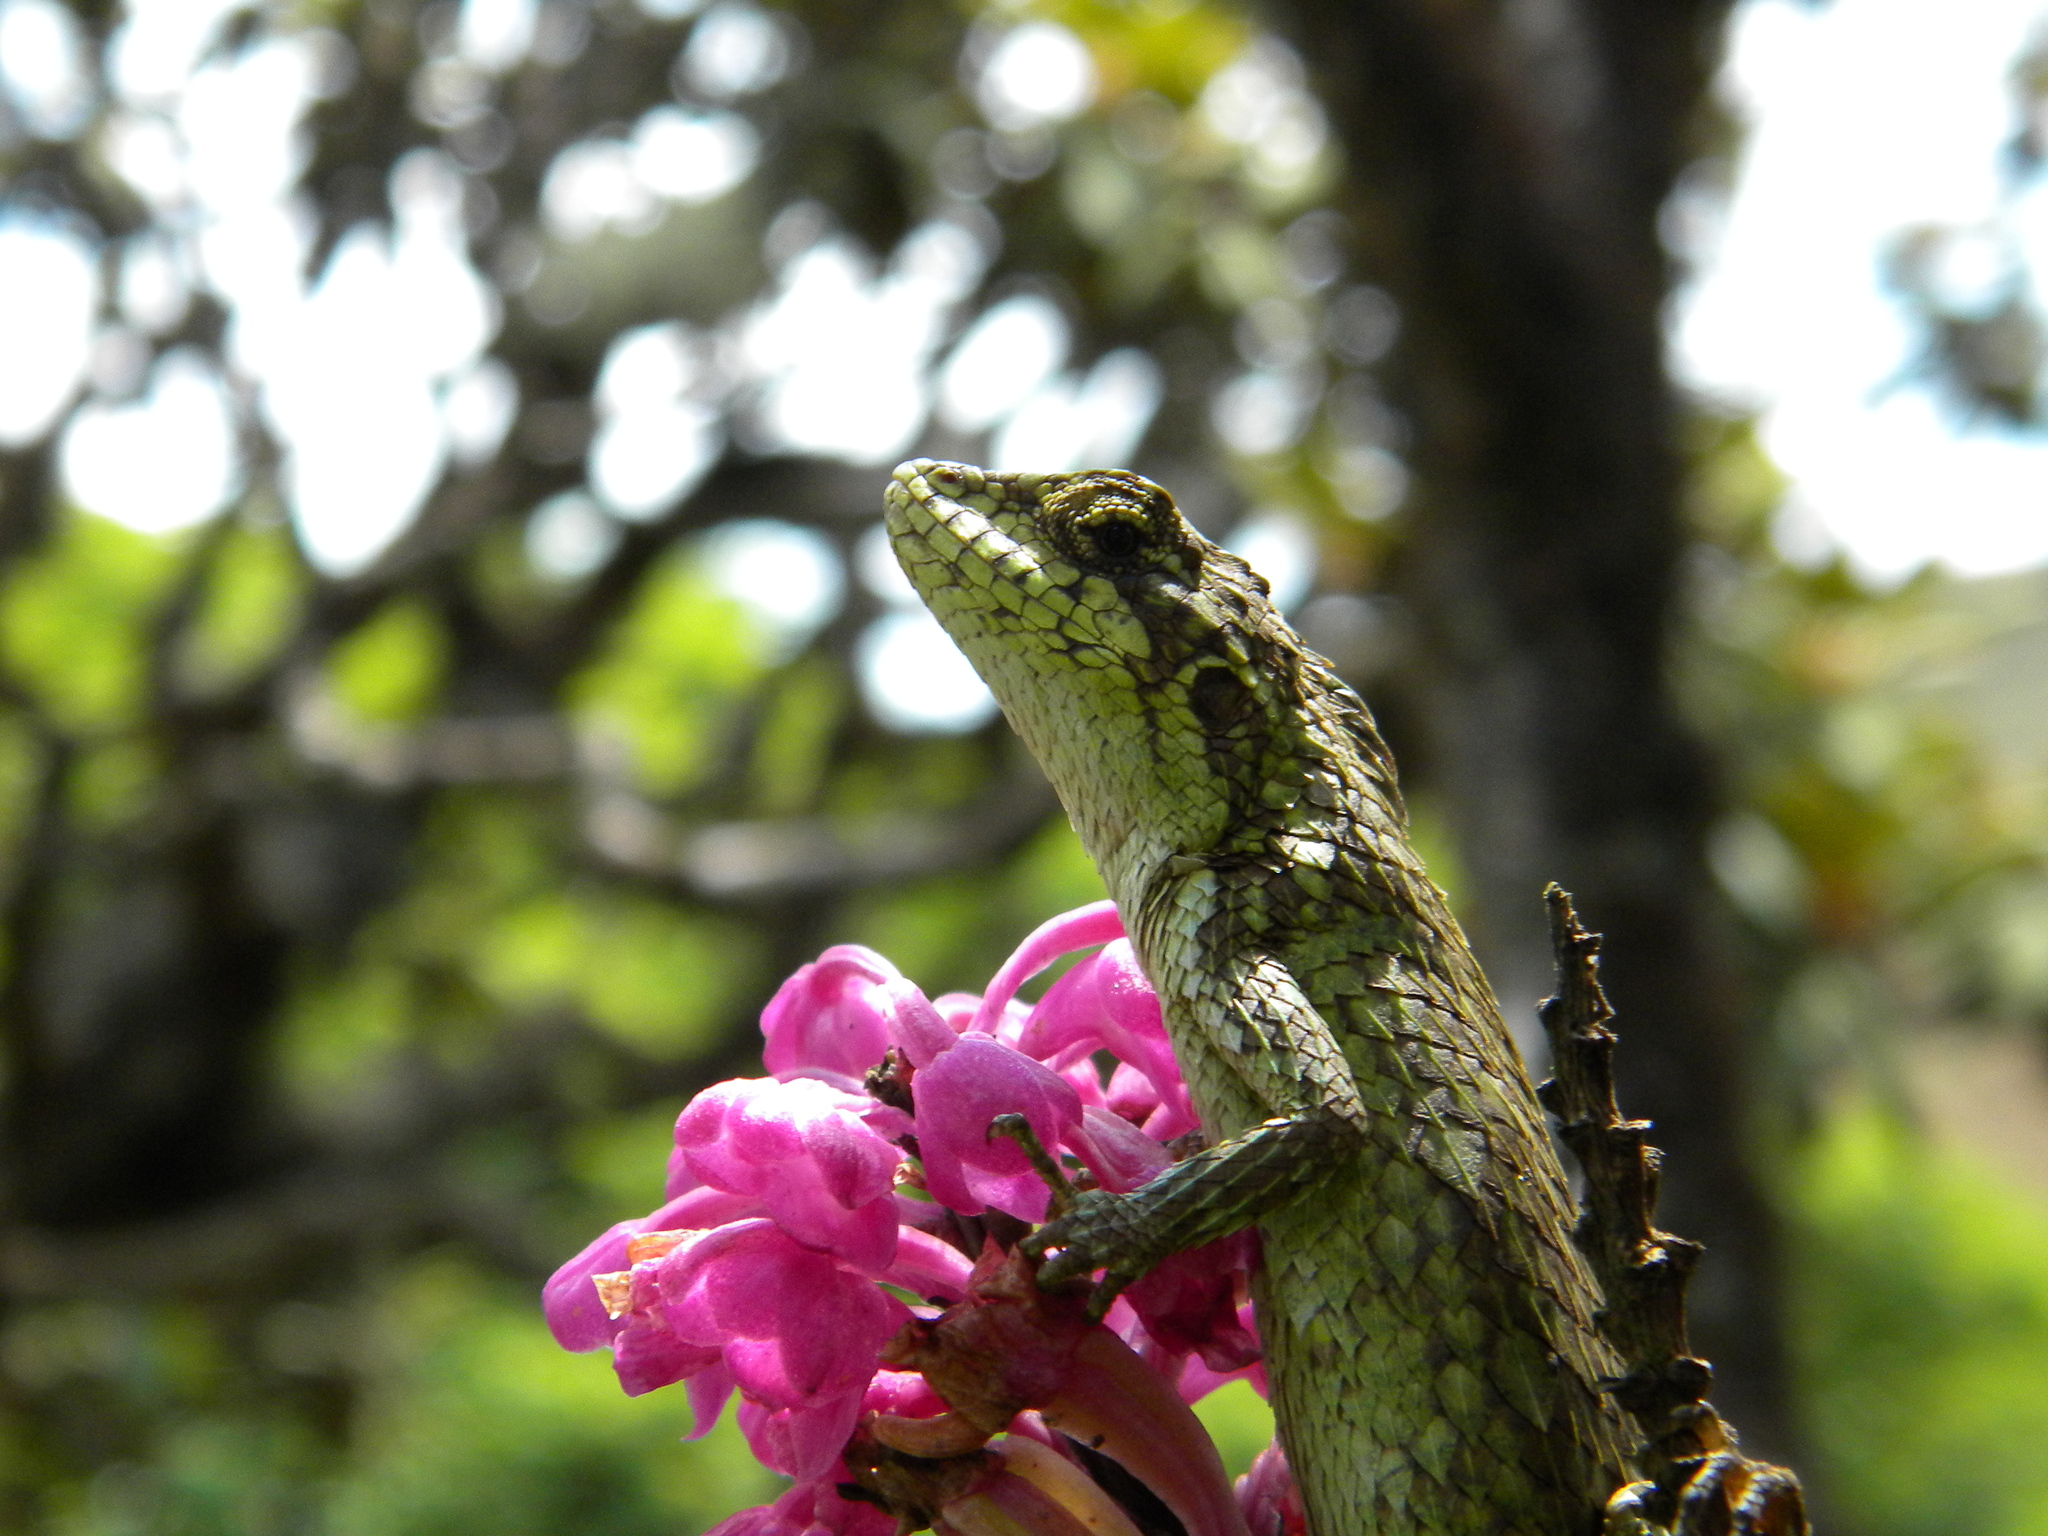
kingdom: Animalia
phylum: Chordata
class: Squamata
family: Agamidae
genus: Salea
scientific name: Salea horsfieldii
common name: Horsfield's spiny lizard
